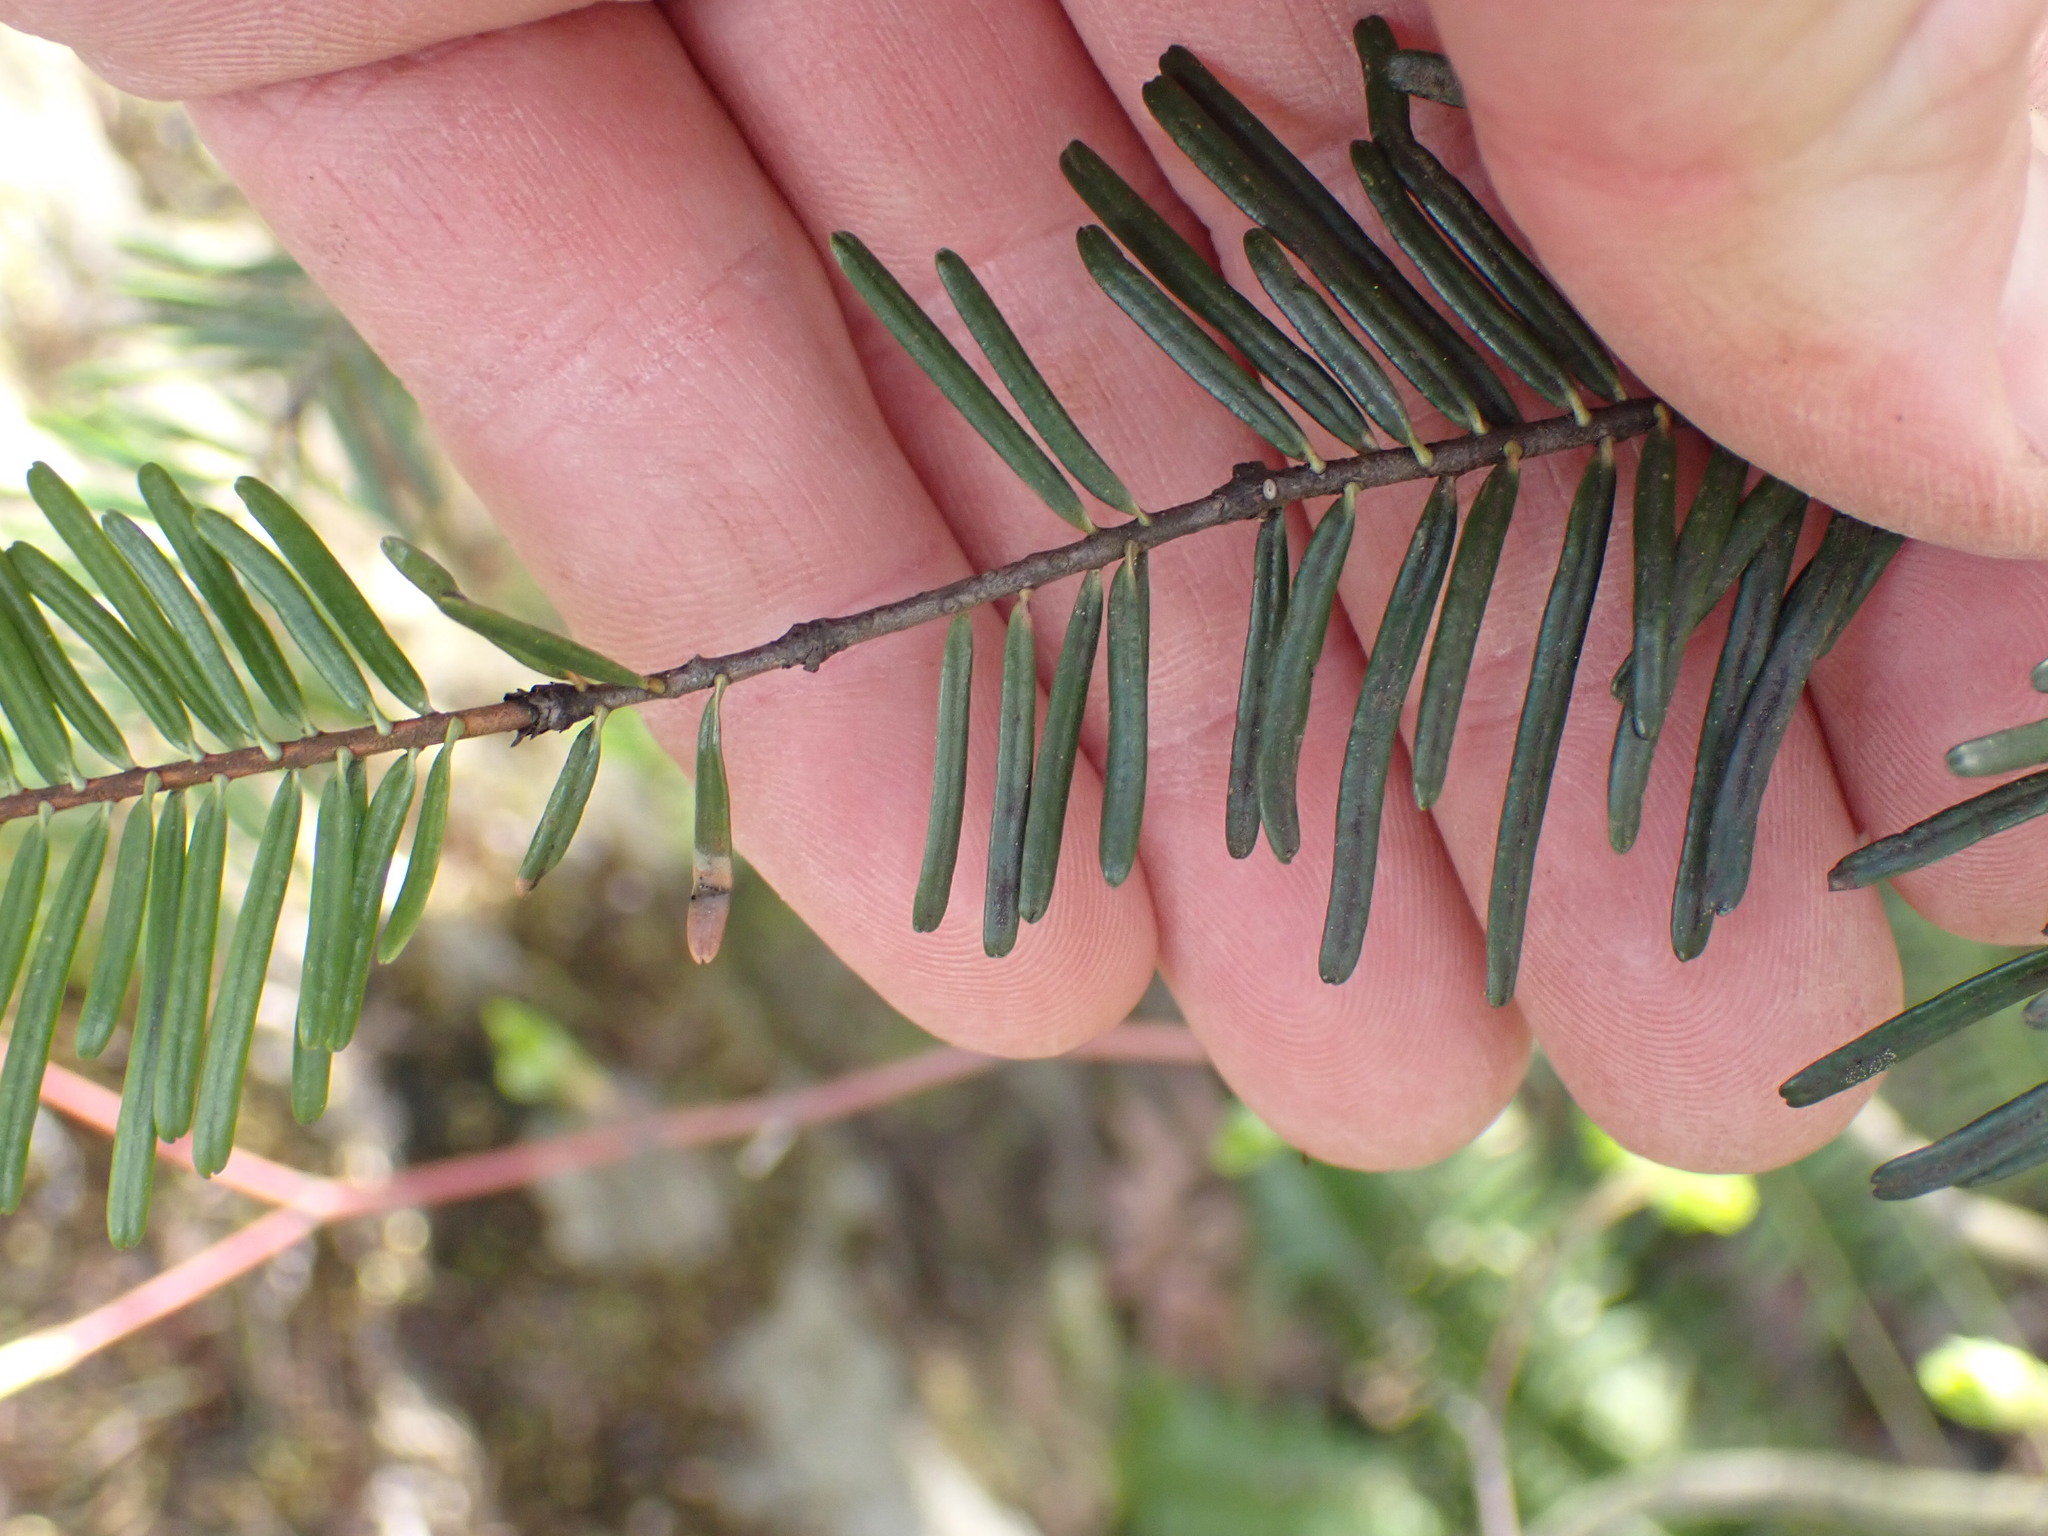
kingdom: Plantae
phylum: Tracheophyta
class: Pinopsida
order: Pinales
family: Pinaceae
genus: Abies
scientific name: Abies grandis
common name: Giant fir
